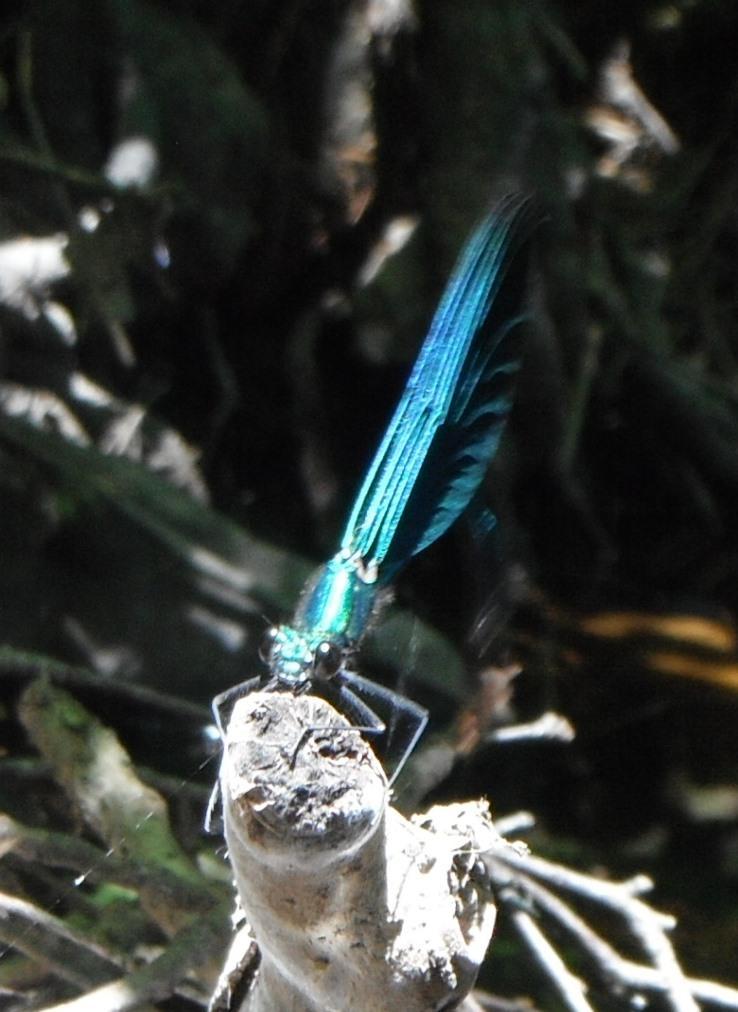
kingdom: Animalia
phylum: Arthropoda
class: Insecta
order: Odonata
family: Calopterygidae
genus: Calopteryx
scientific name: Calopteryx virgo
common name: Beautiful demoiselle
